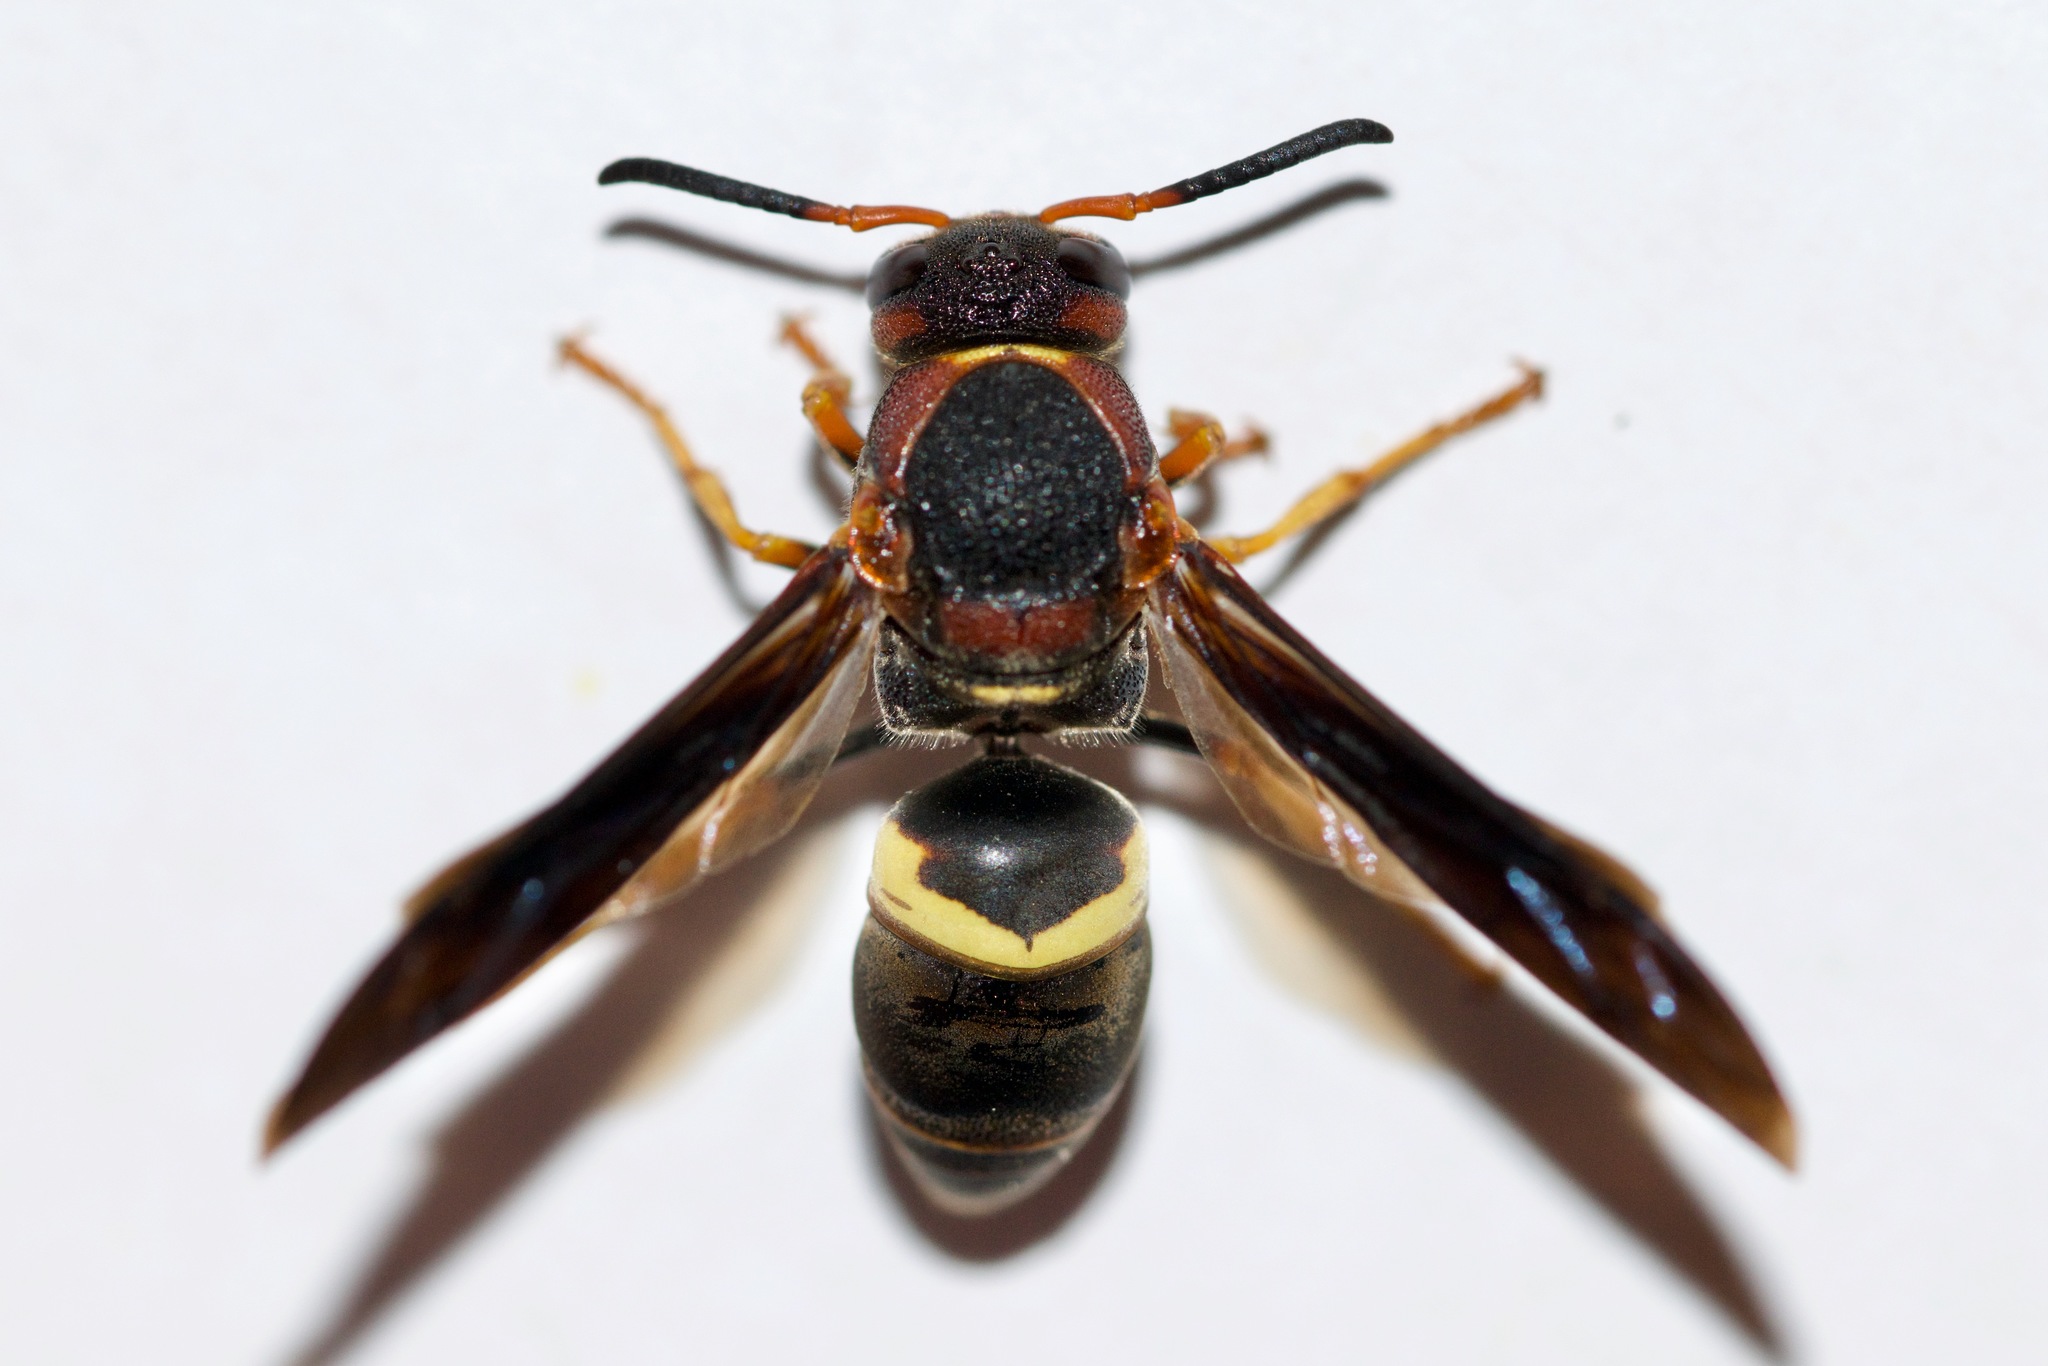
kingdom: Animalia
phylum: Arthropoda
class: Insecta
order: Hymenoptera
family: Eumenidae
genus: Euodynerus
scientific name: Euodynerus crypticus
